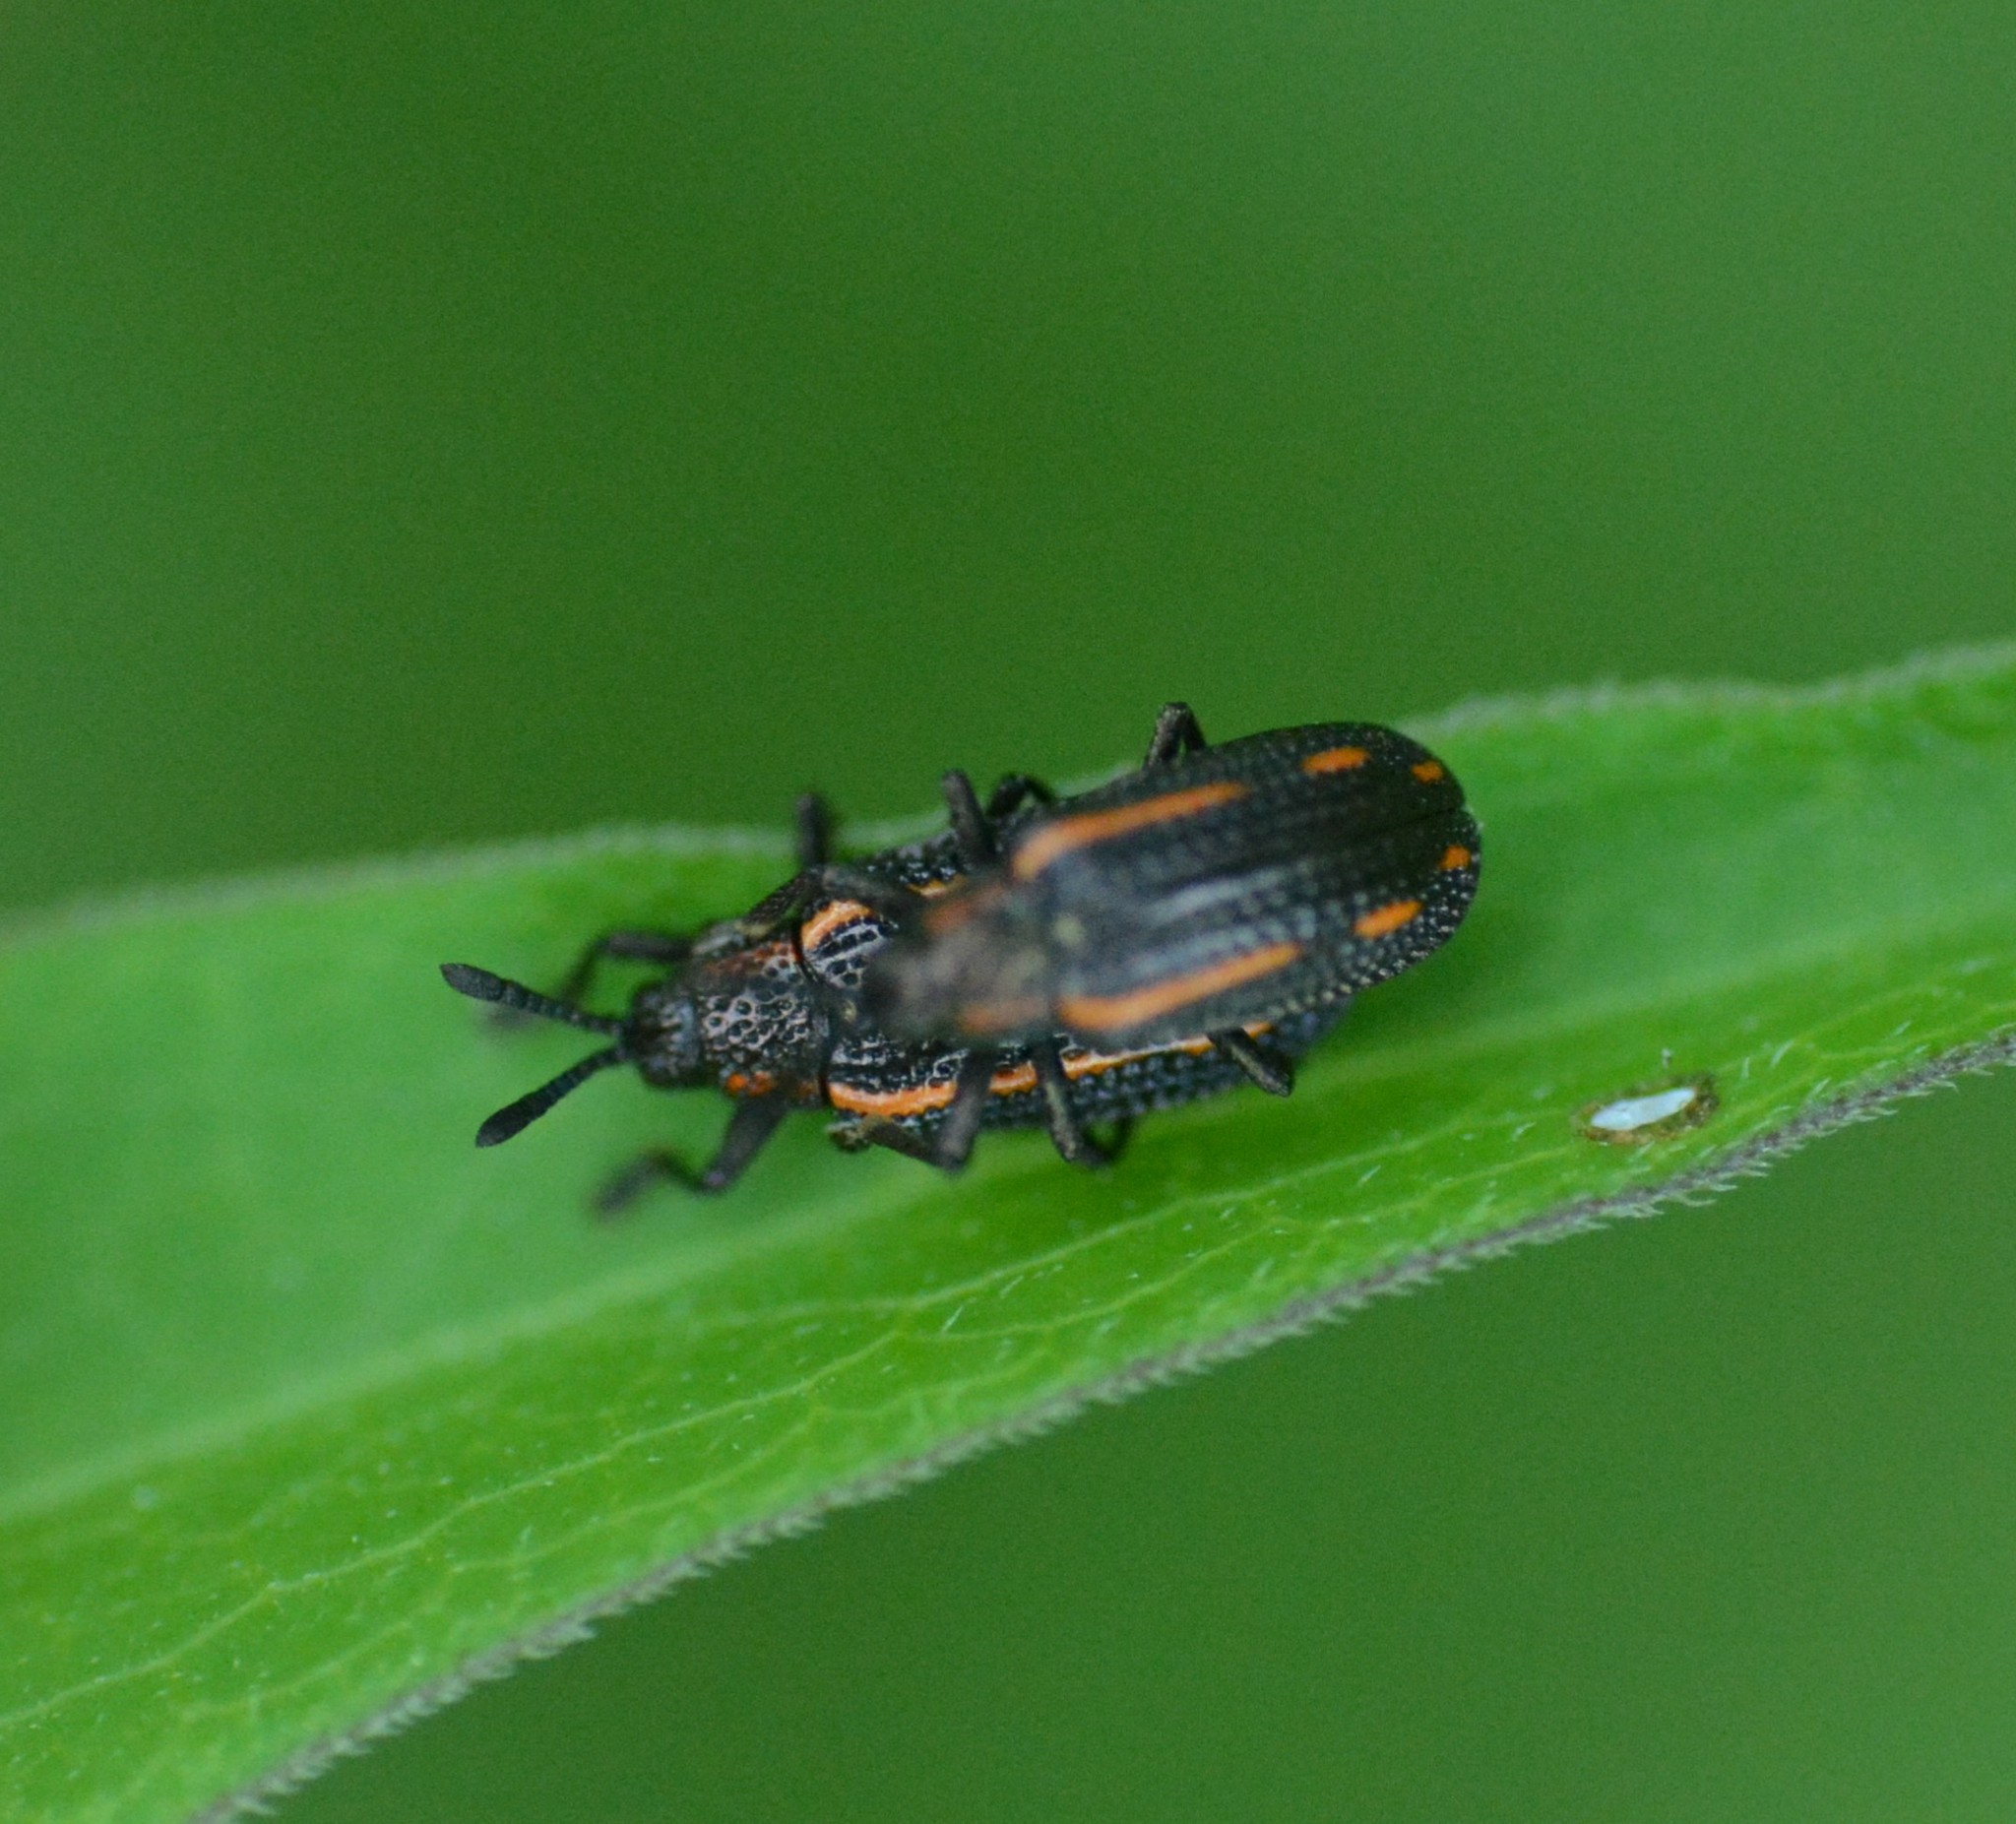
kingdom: Animalia
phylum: Arthropoda
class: Insecta
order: Coleoptera
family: Chrysomelidae
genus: Microrhopala
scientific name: Microrhopala xerene
